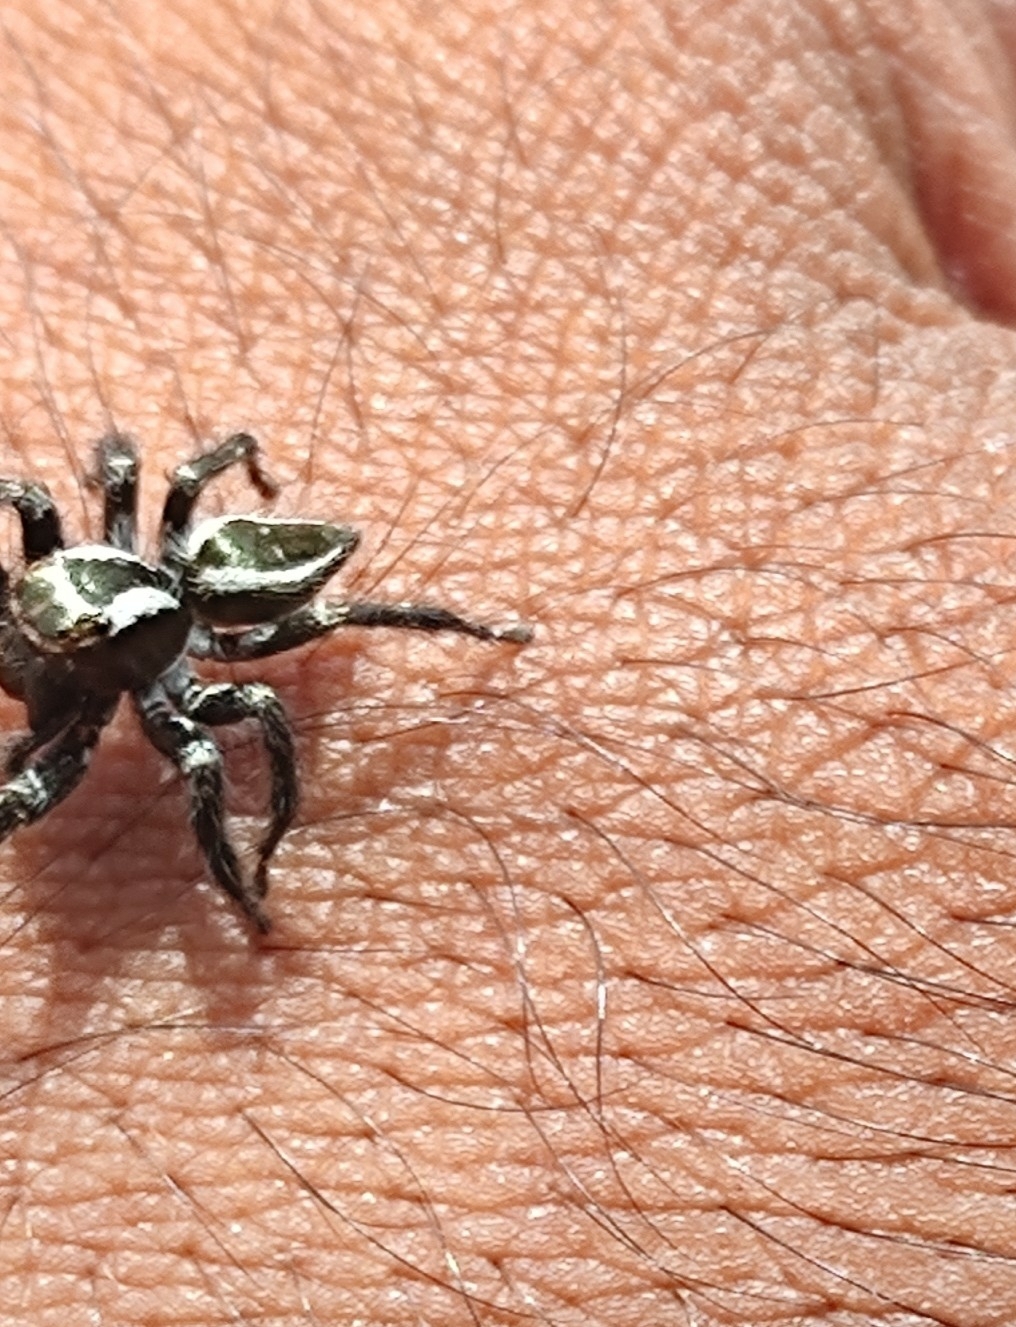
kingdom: Animalia
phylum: Arthropoda
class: Arachnida
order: Araneae
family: Salticidae
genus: Carrhotus
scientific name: Carrhotus viduus
